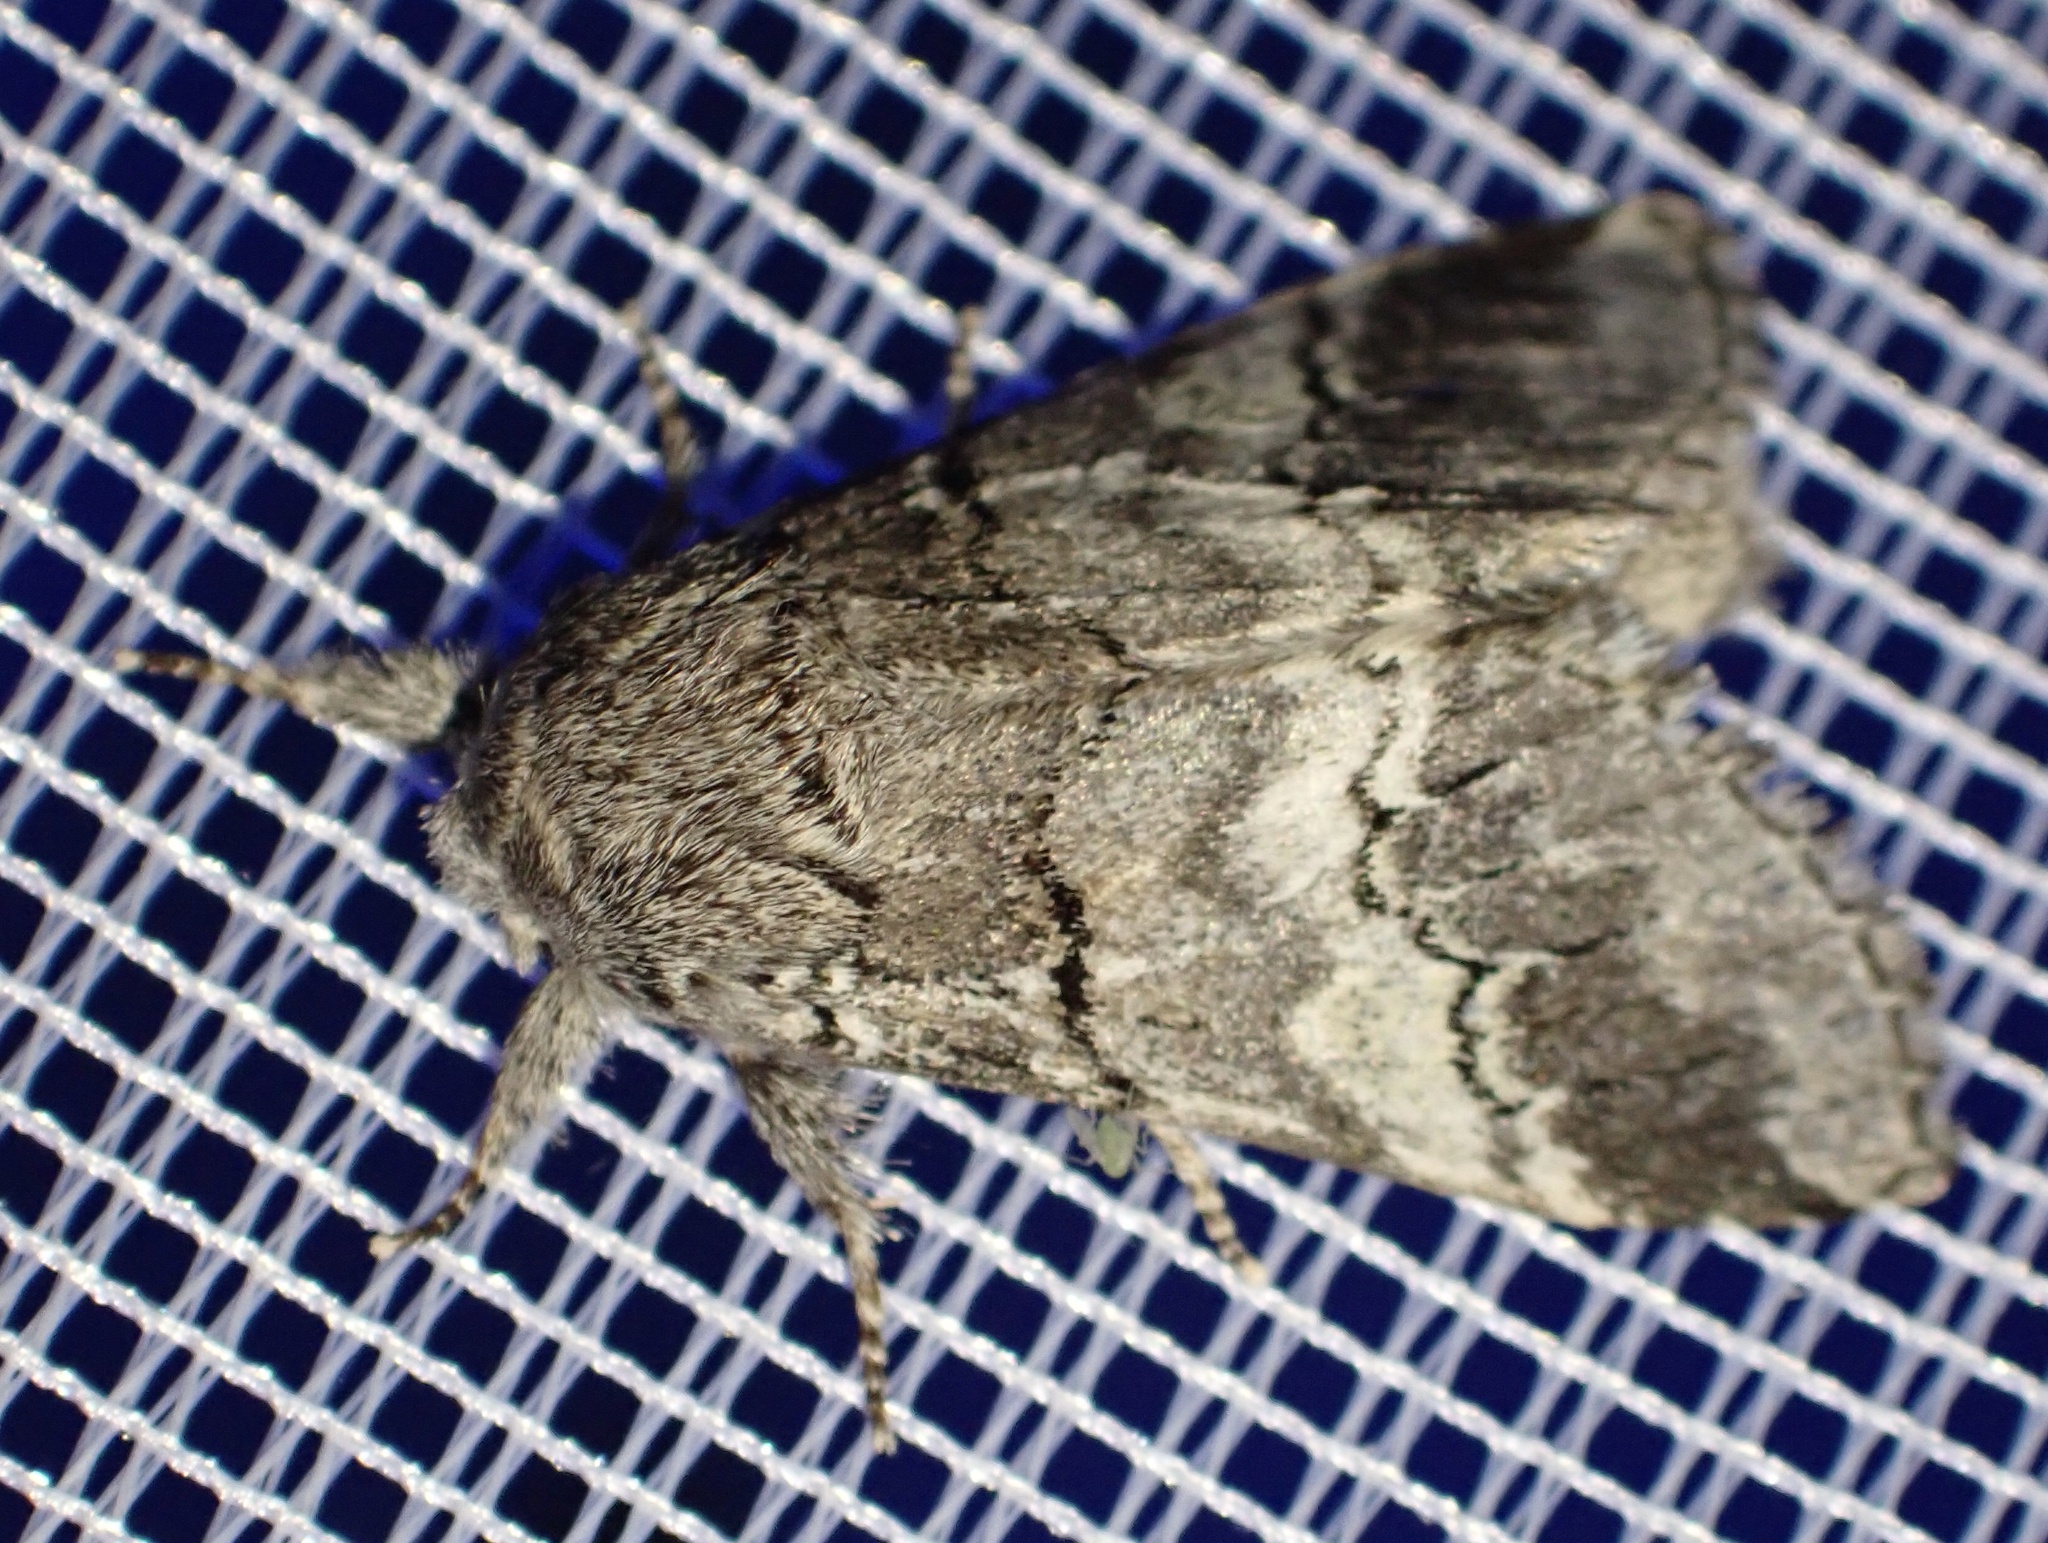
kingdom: Animalia
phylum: Arthropoda
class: Insecta
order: Lepidoptera
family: Notodontidae
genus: Drymonia
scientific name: Drymonia querna
